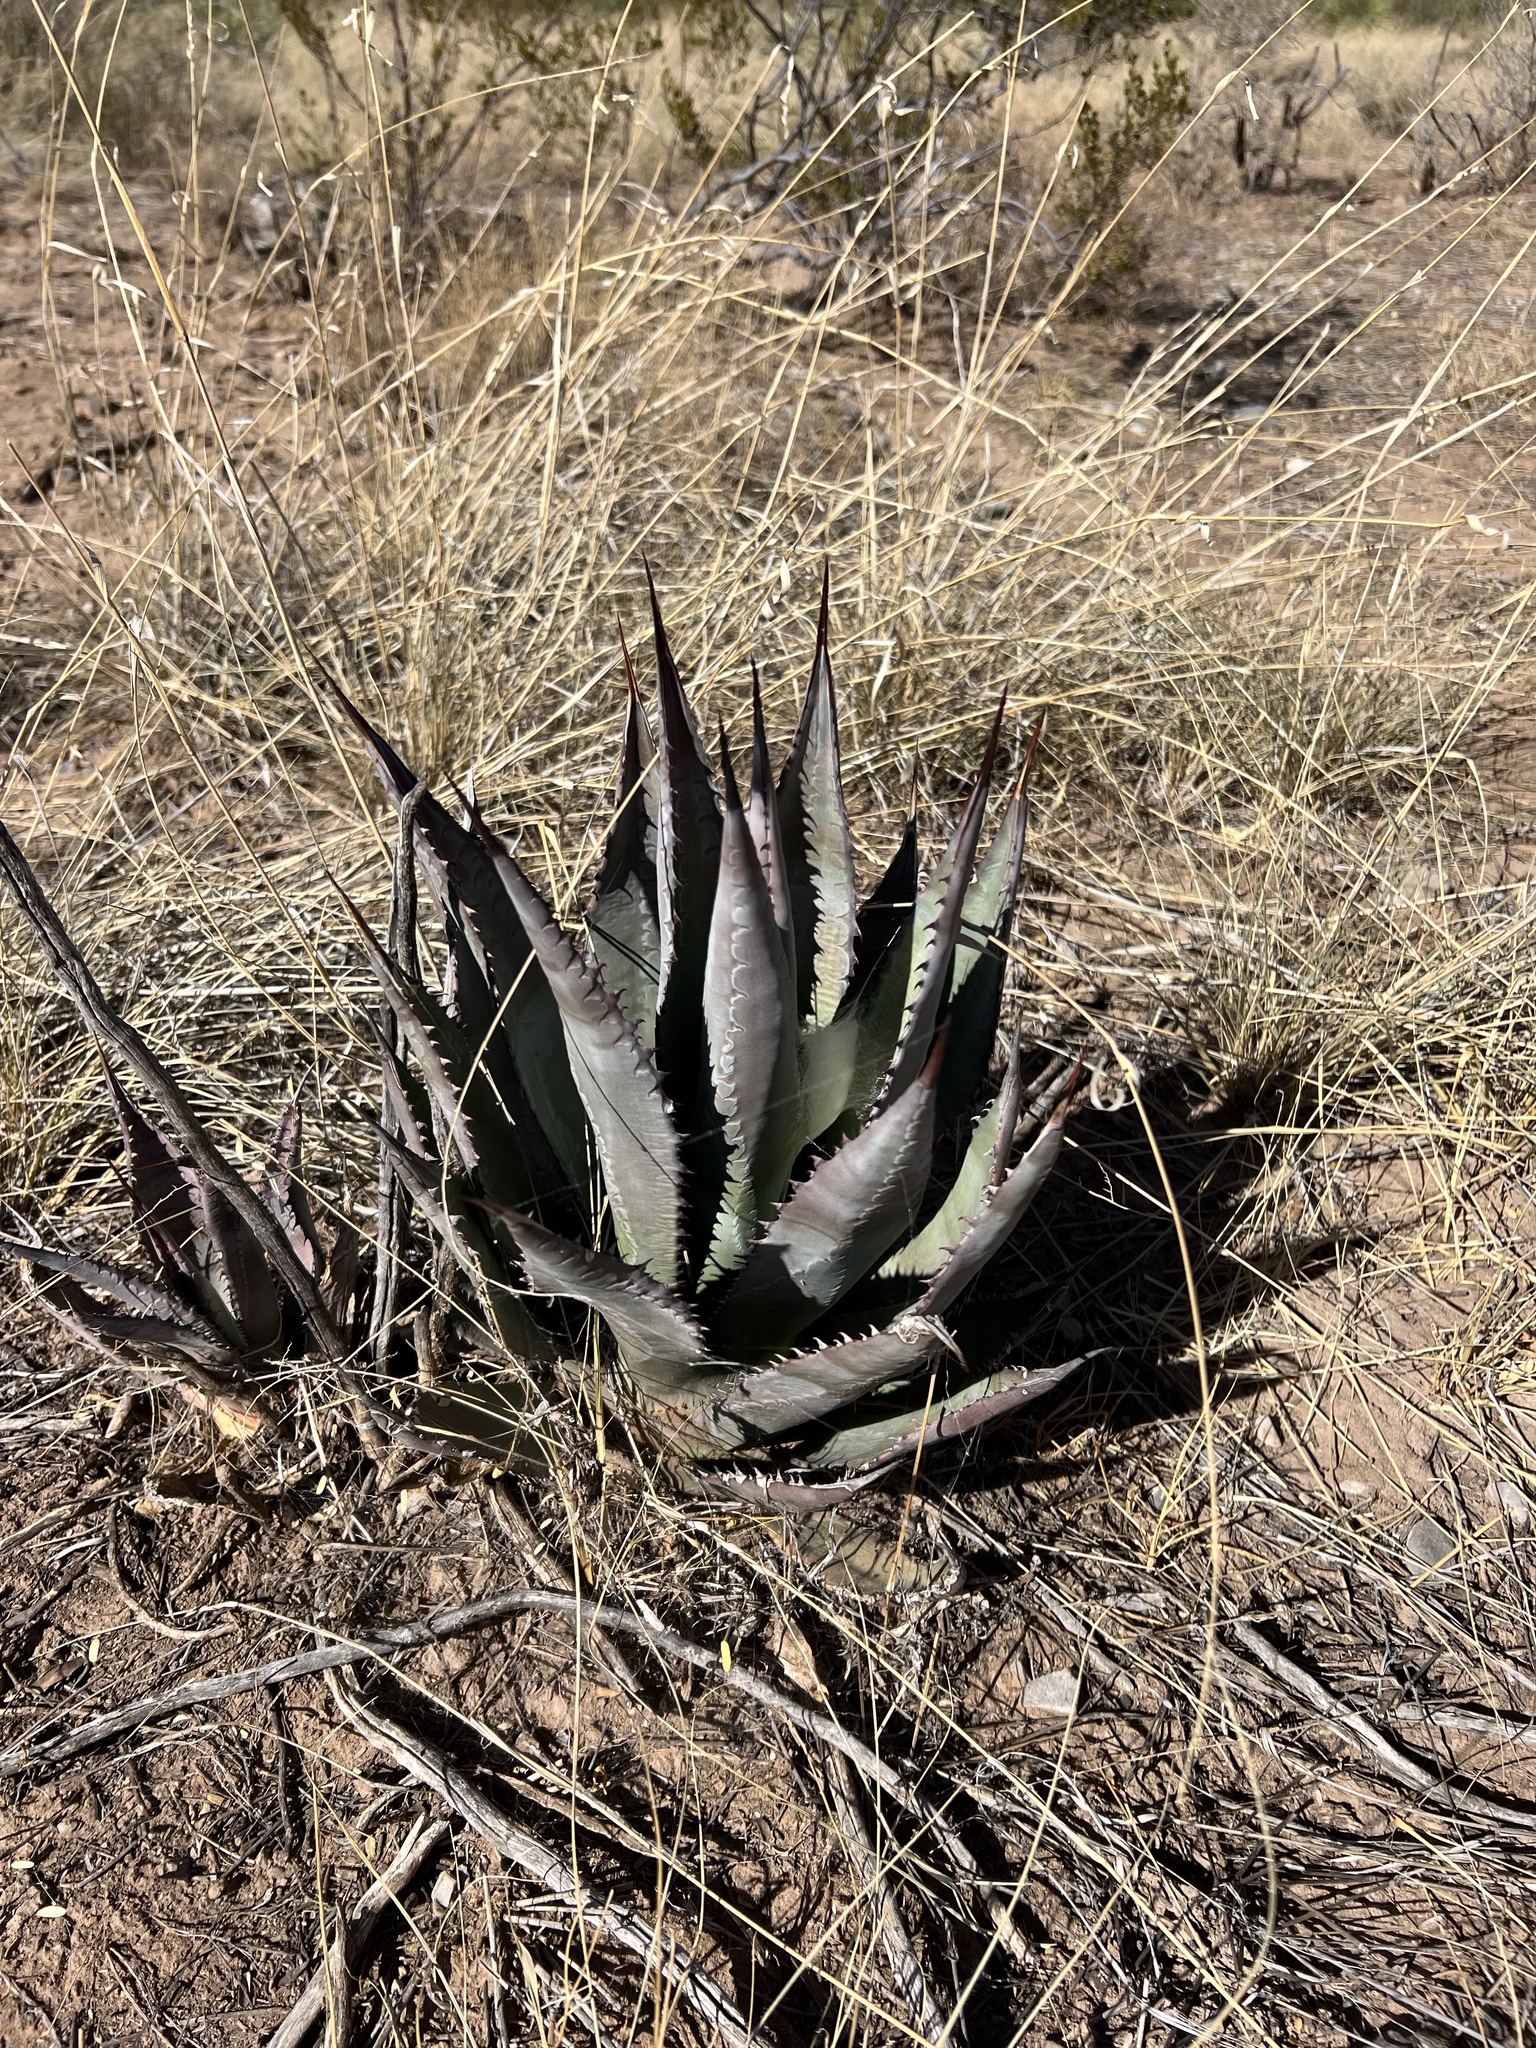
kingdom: Plantae
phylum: Tracheophyta
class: Liliopsida
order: Asparagales
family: Asparagaceae
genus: Agave
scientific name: Agave palmeri
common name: Palmer agave
